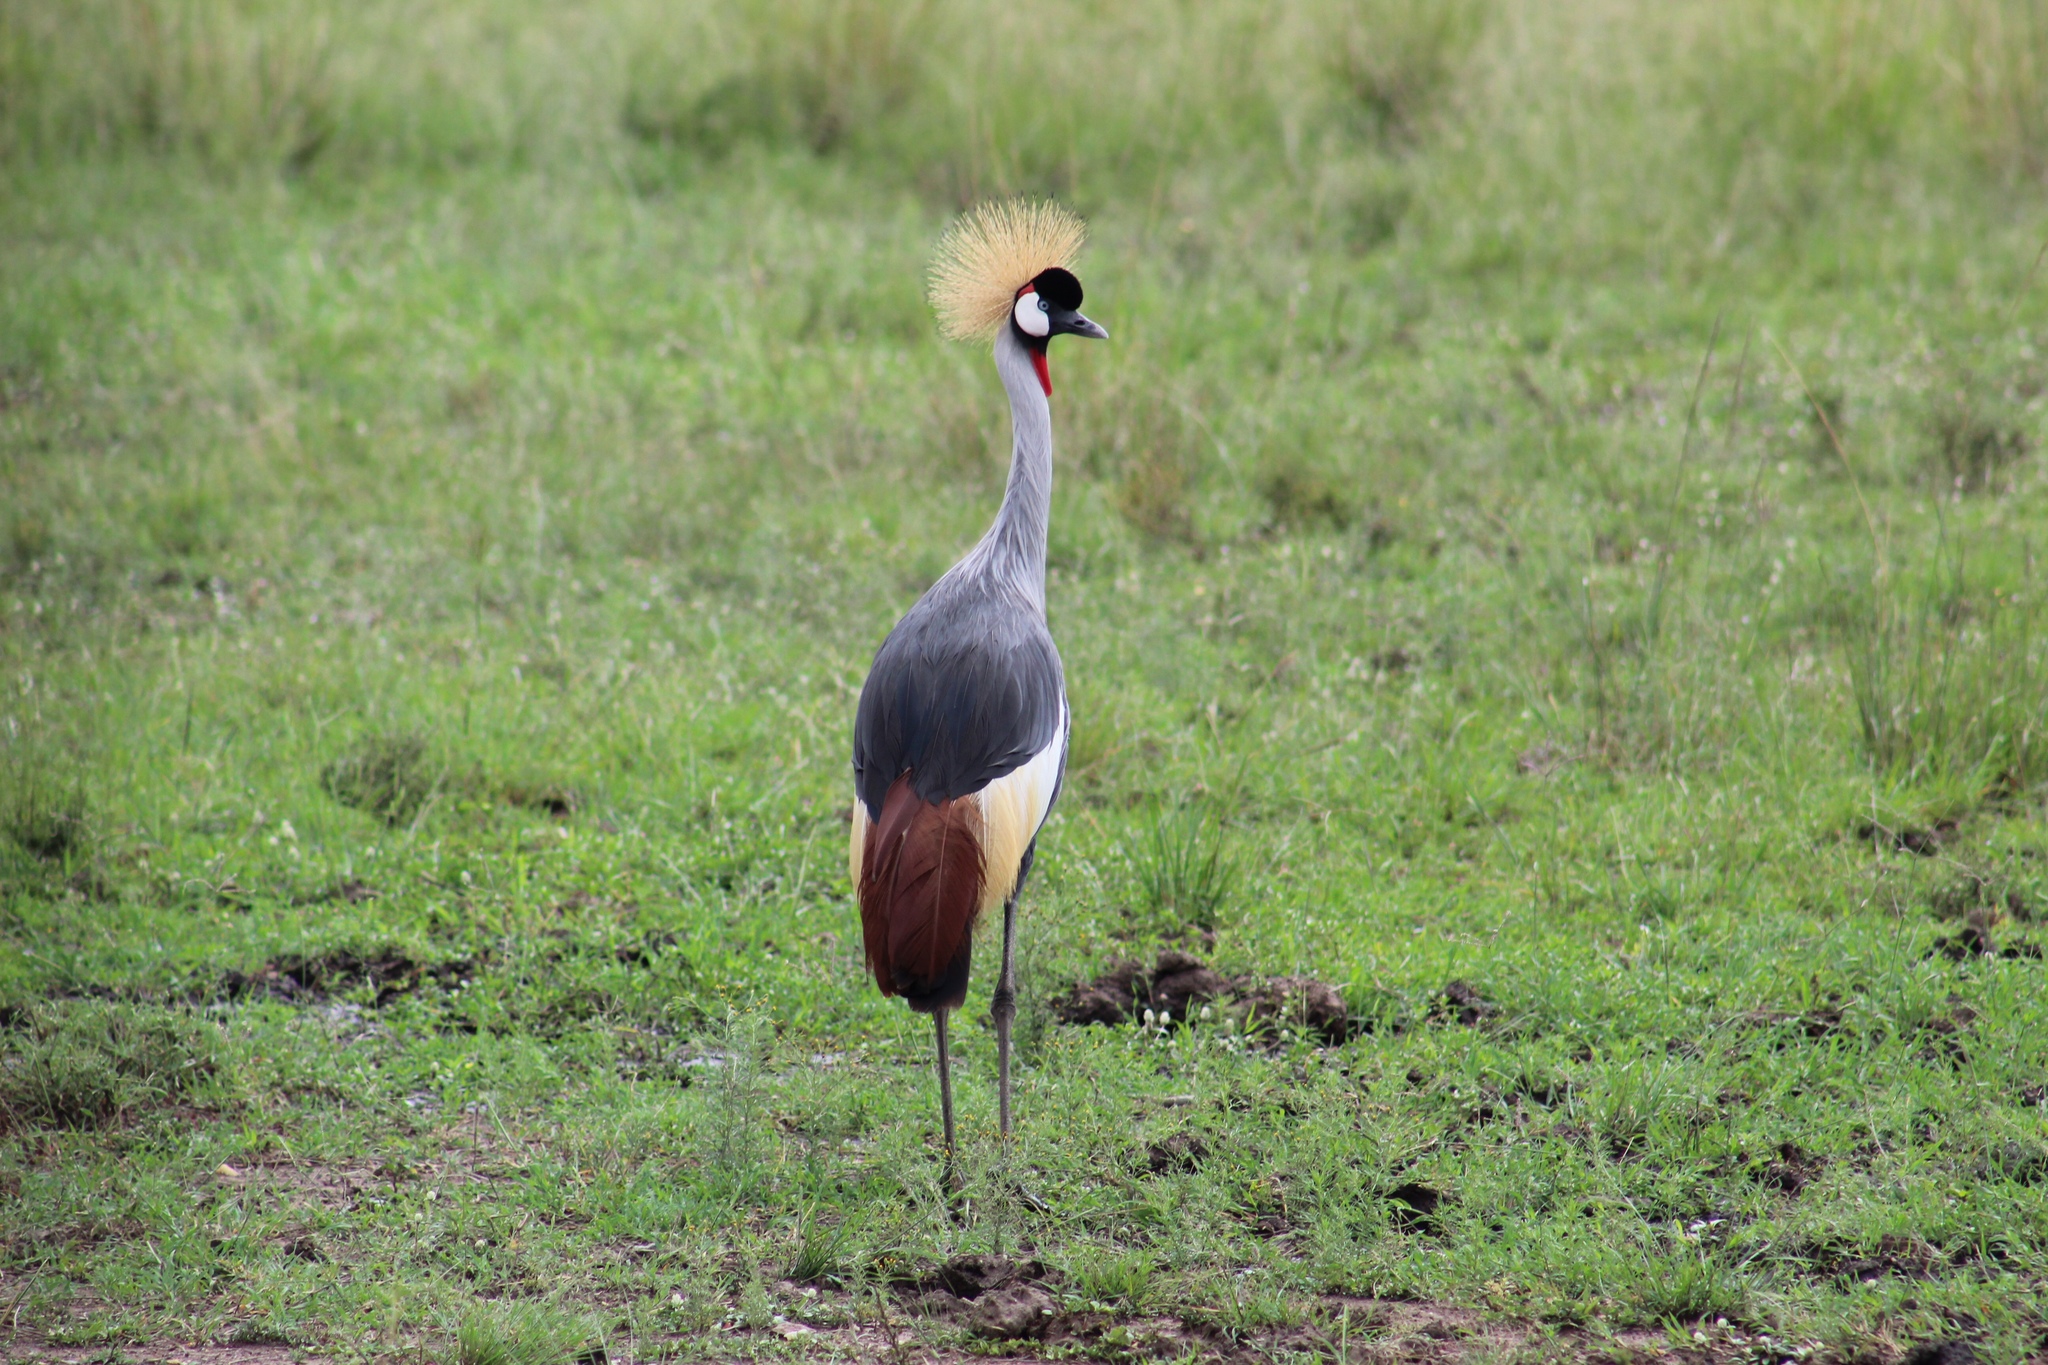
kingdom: Animalia
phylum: Chordata
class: Aves
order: Gruiformes
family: Gruidae
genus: Balearica
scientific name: Balearica regulorum
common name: Grey crowned crane
